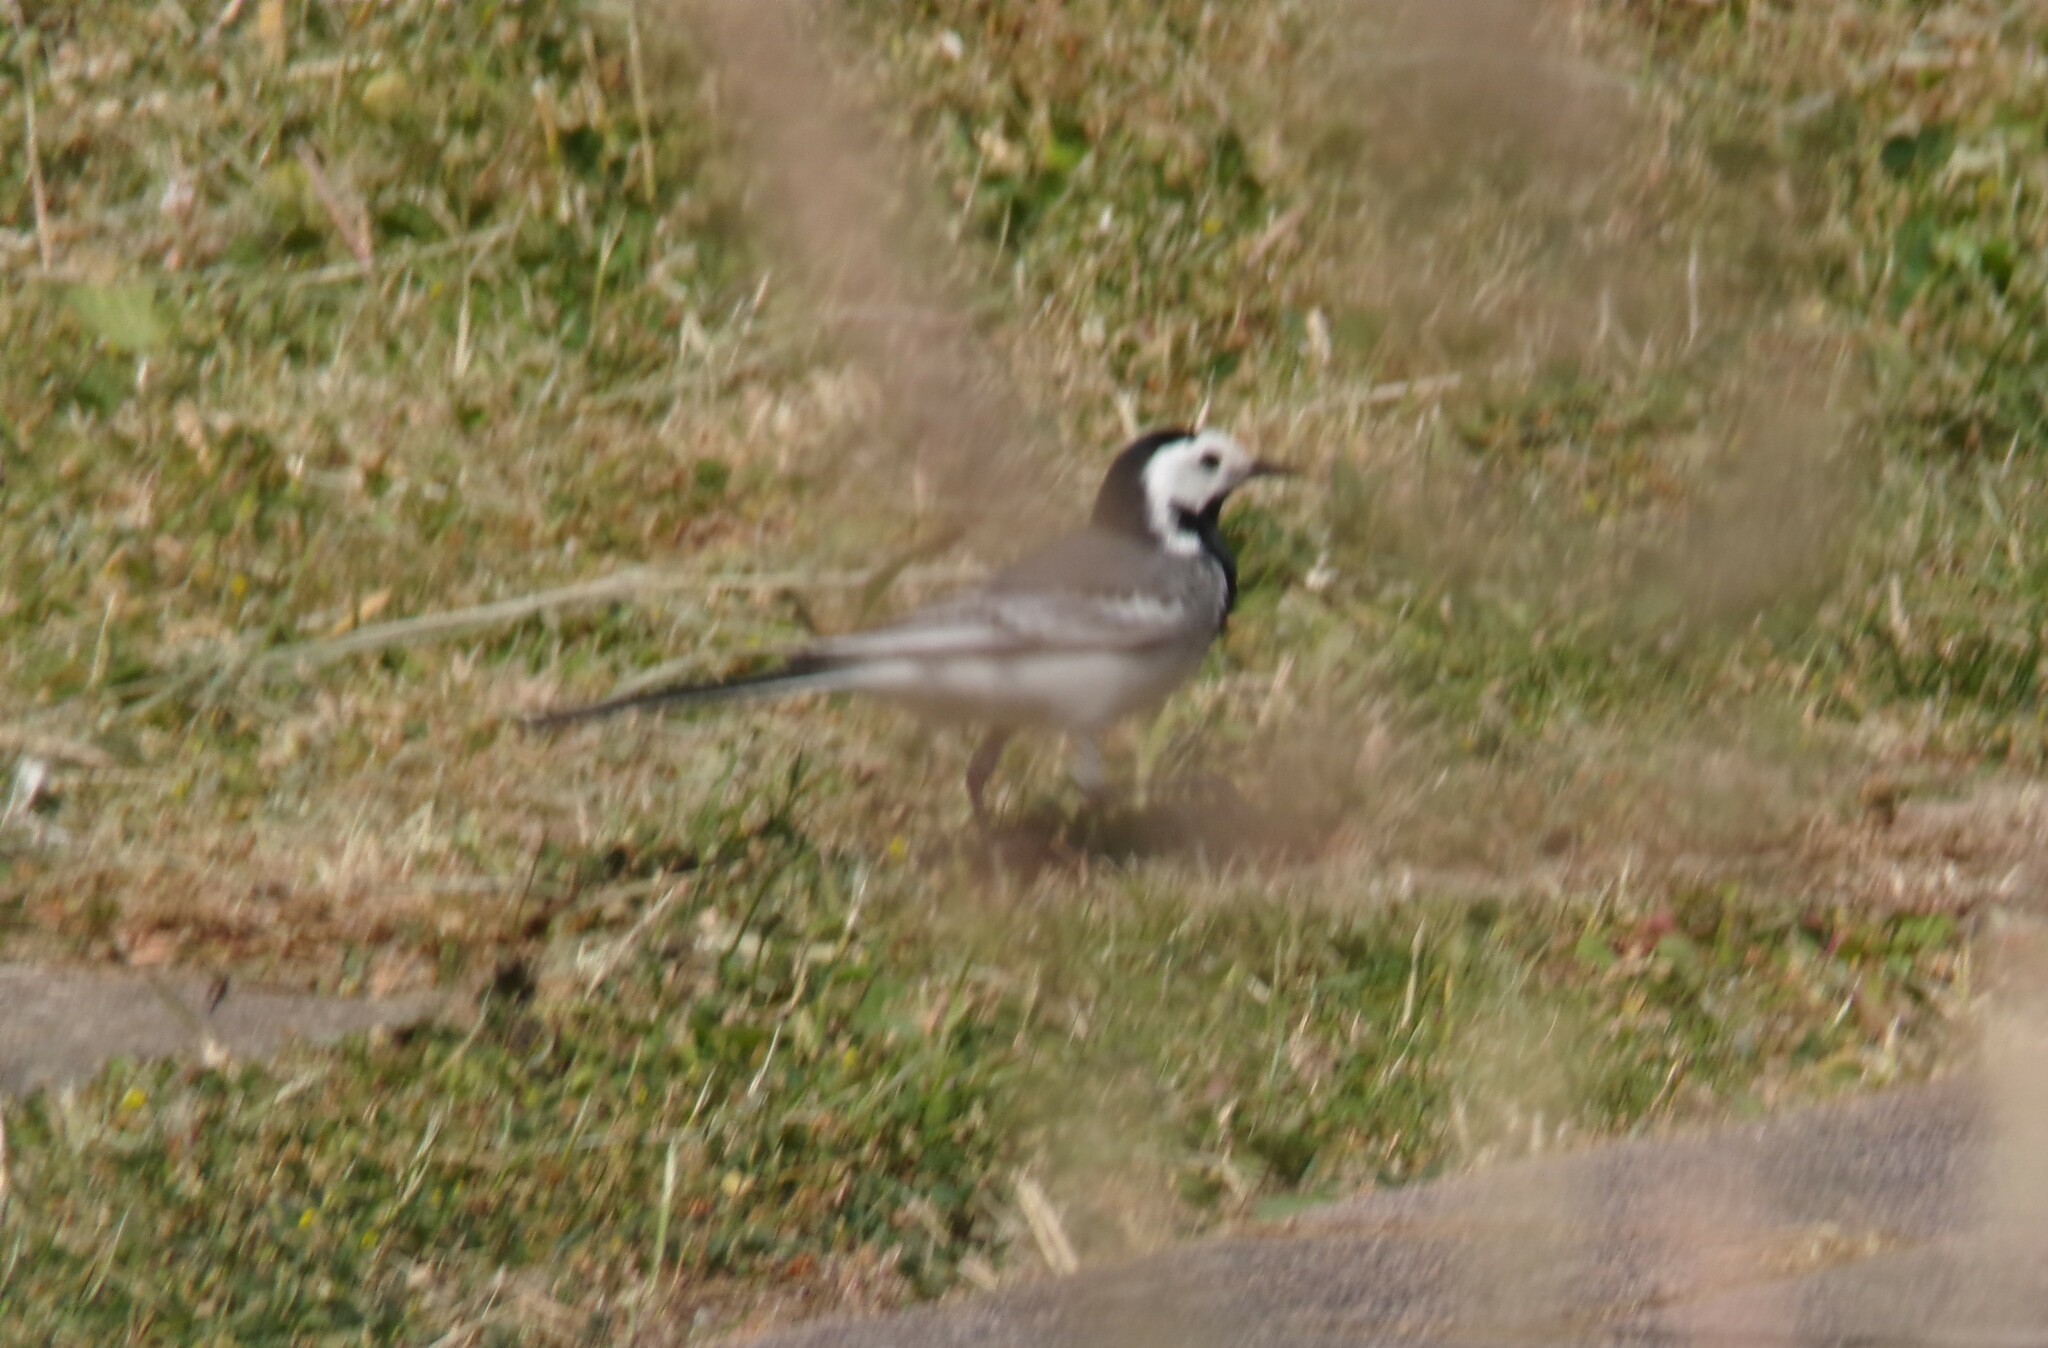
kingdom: Animalia
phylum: Chordata
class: Aves
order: Passeriformes
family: Motacillidae
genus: Motacilla
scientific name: Motacilla alba
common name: White wagtail
